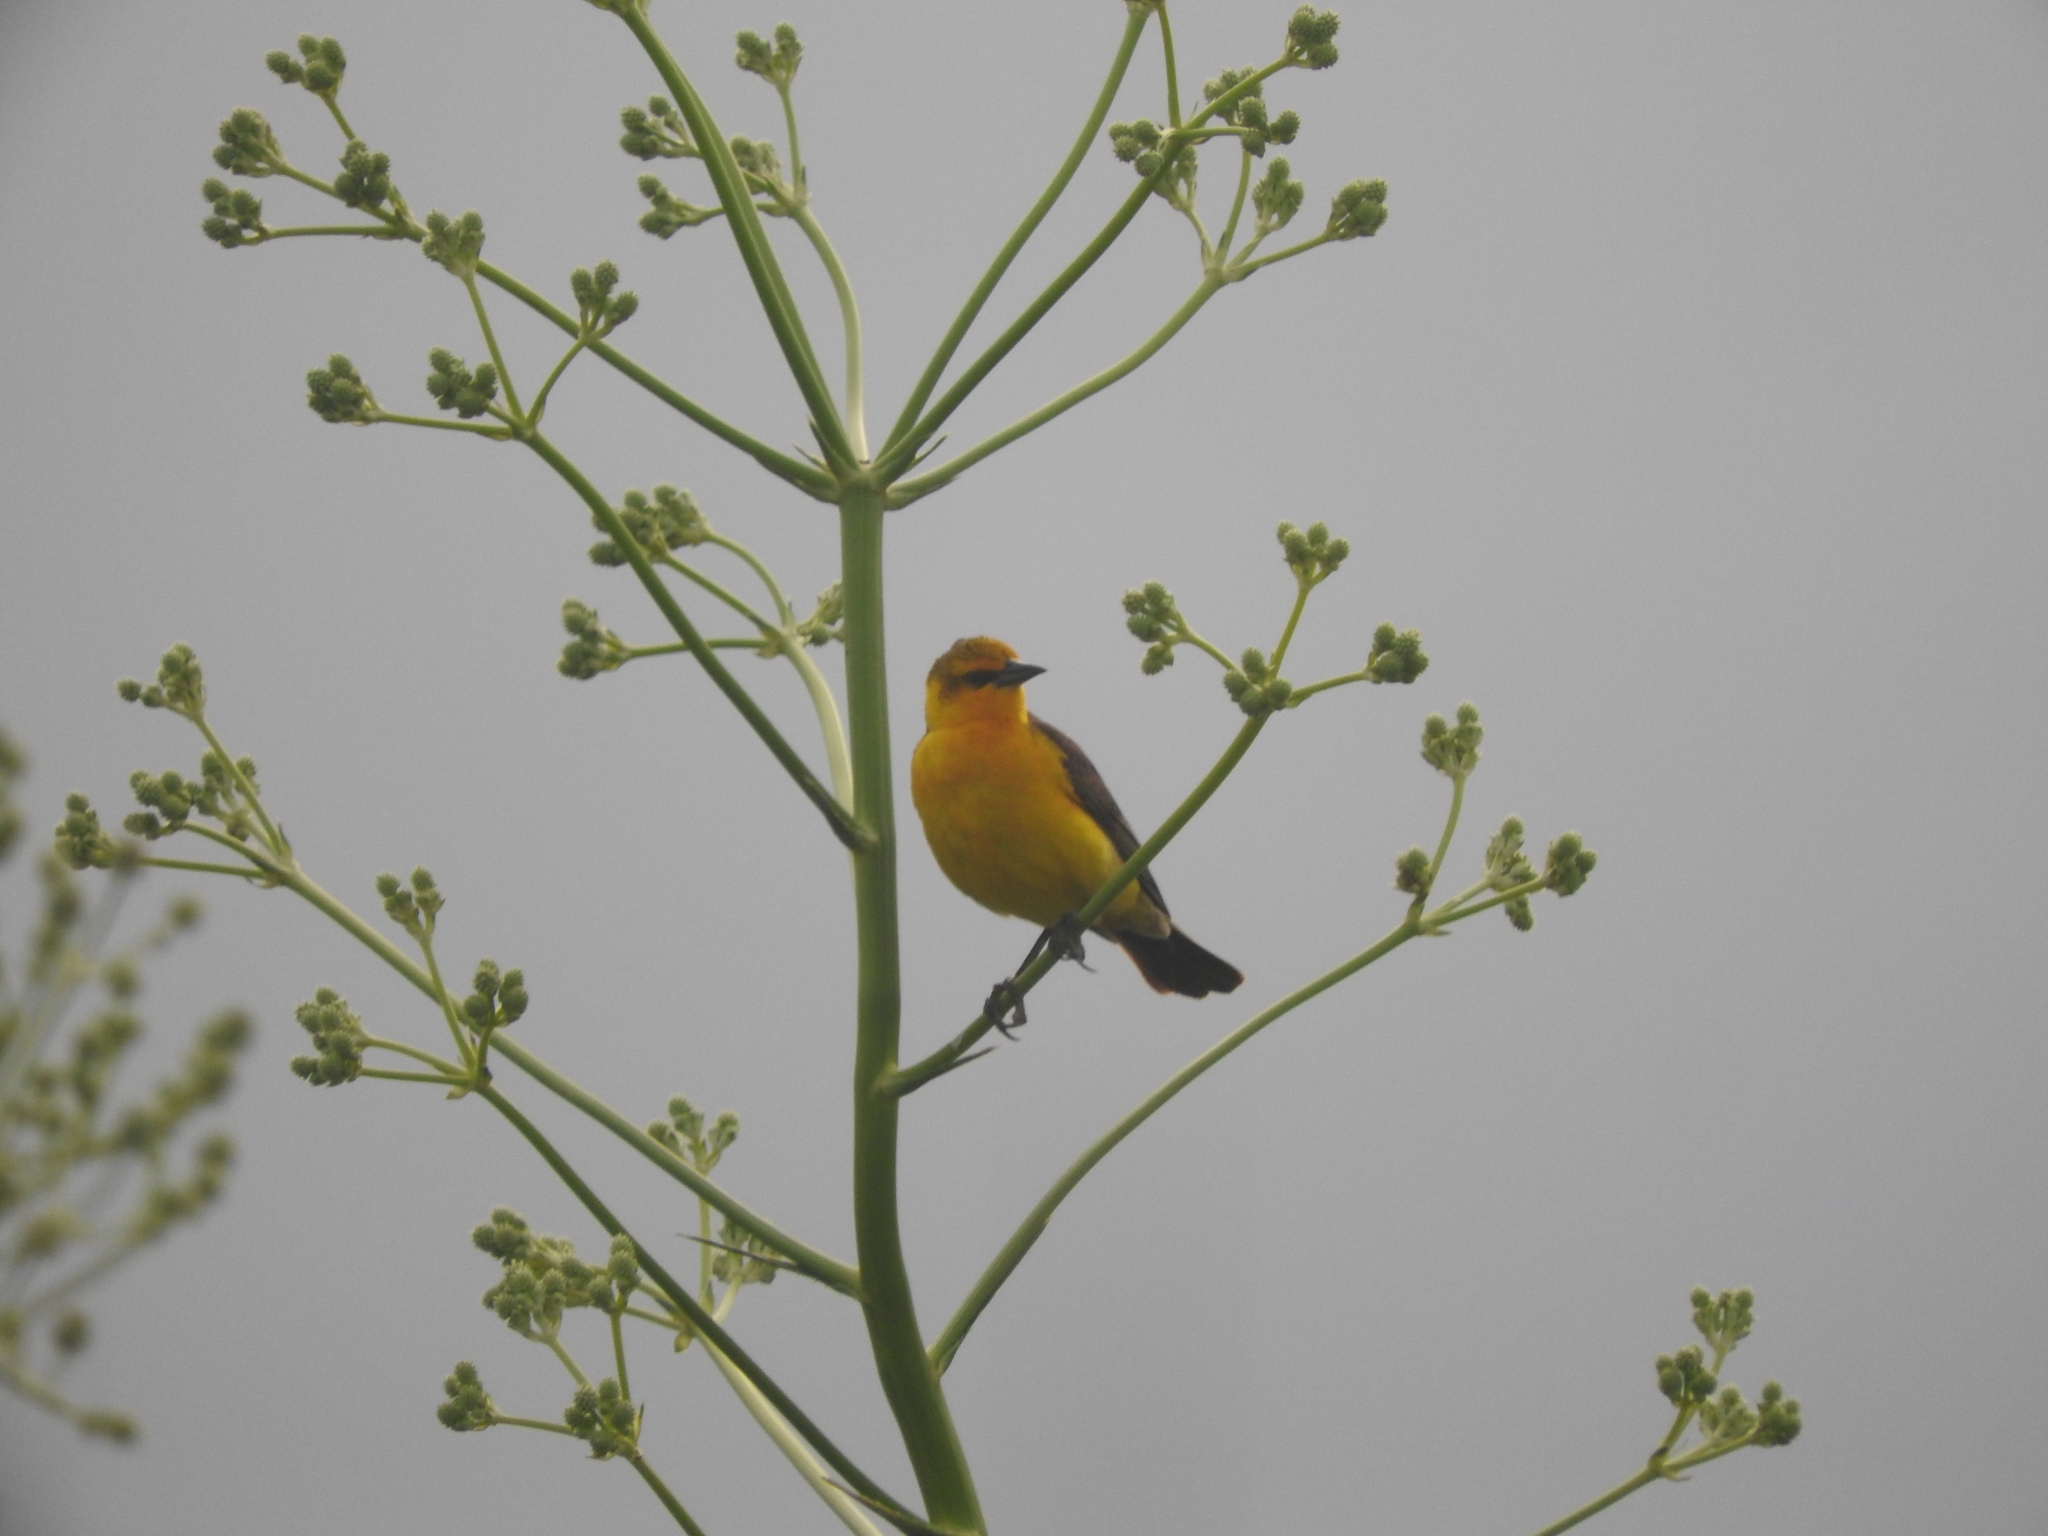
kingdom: Animalia
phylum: Chordata
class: Aves
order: Passeriformes
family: Icteridae
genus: Xanthopsar
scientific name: Xanthopsar flavus
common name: Saffron-cowled blackbird
